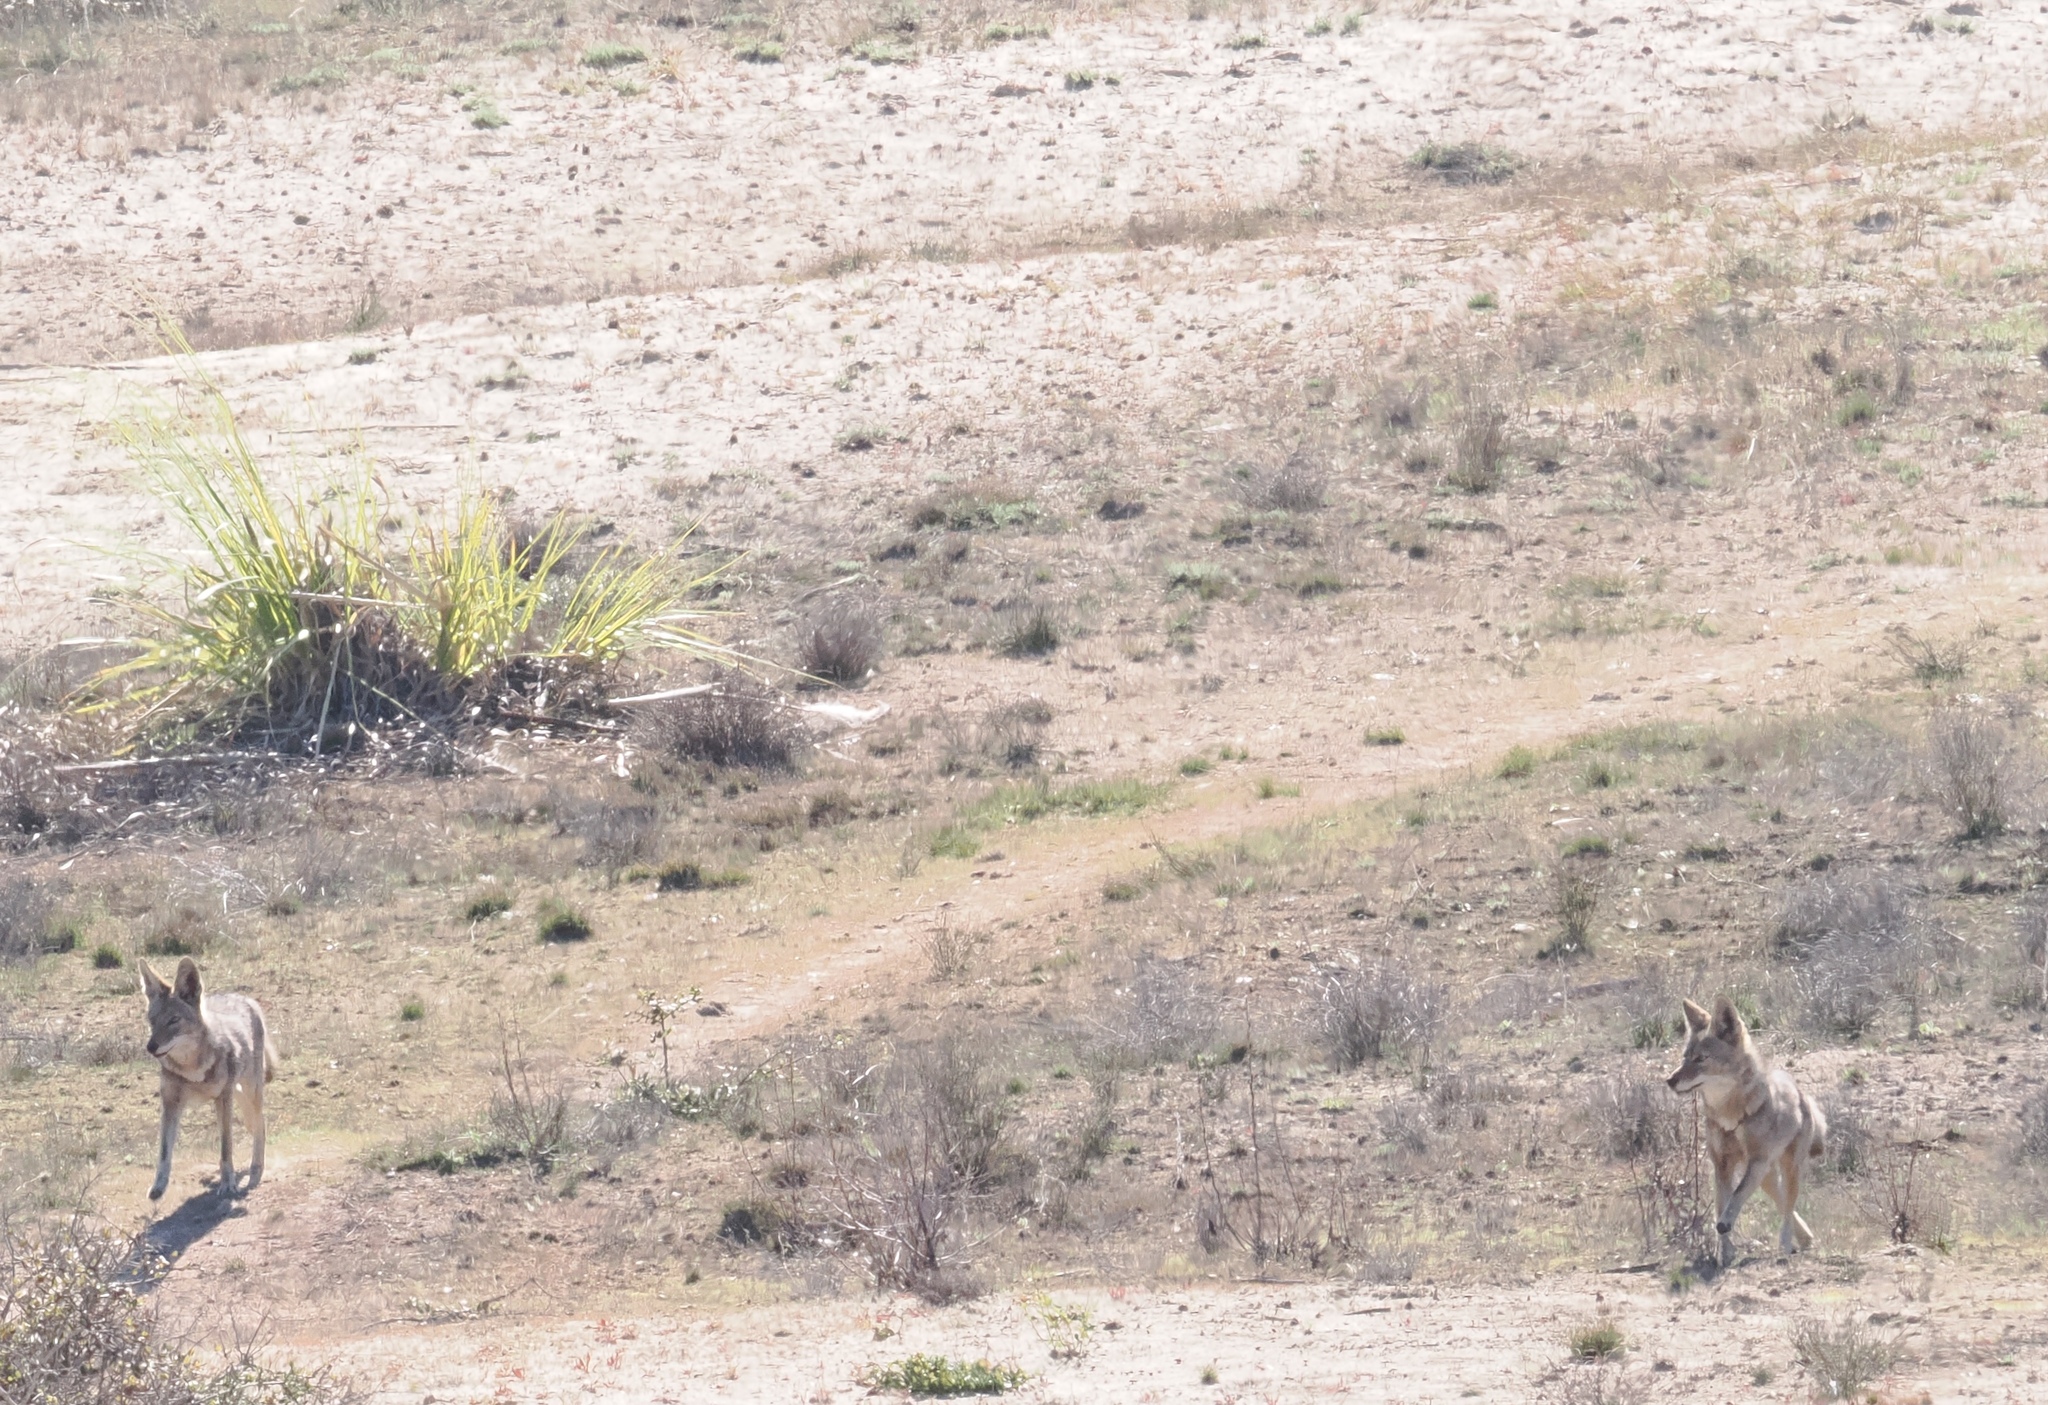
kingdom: Animalia
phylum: Chordata
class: Mammalia
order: Carnivora
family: Canidae
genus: Canis
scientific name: Canis latrans
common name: Coyote
